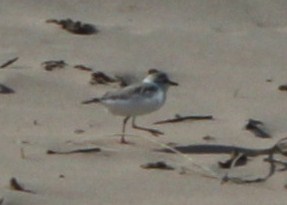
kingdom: Animalia
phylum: Chordata
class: Aves
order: Charadriiformes
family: Charadriidae
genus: Anarhynchus
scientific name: Anarhynchus
